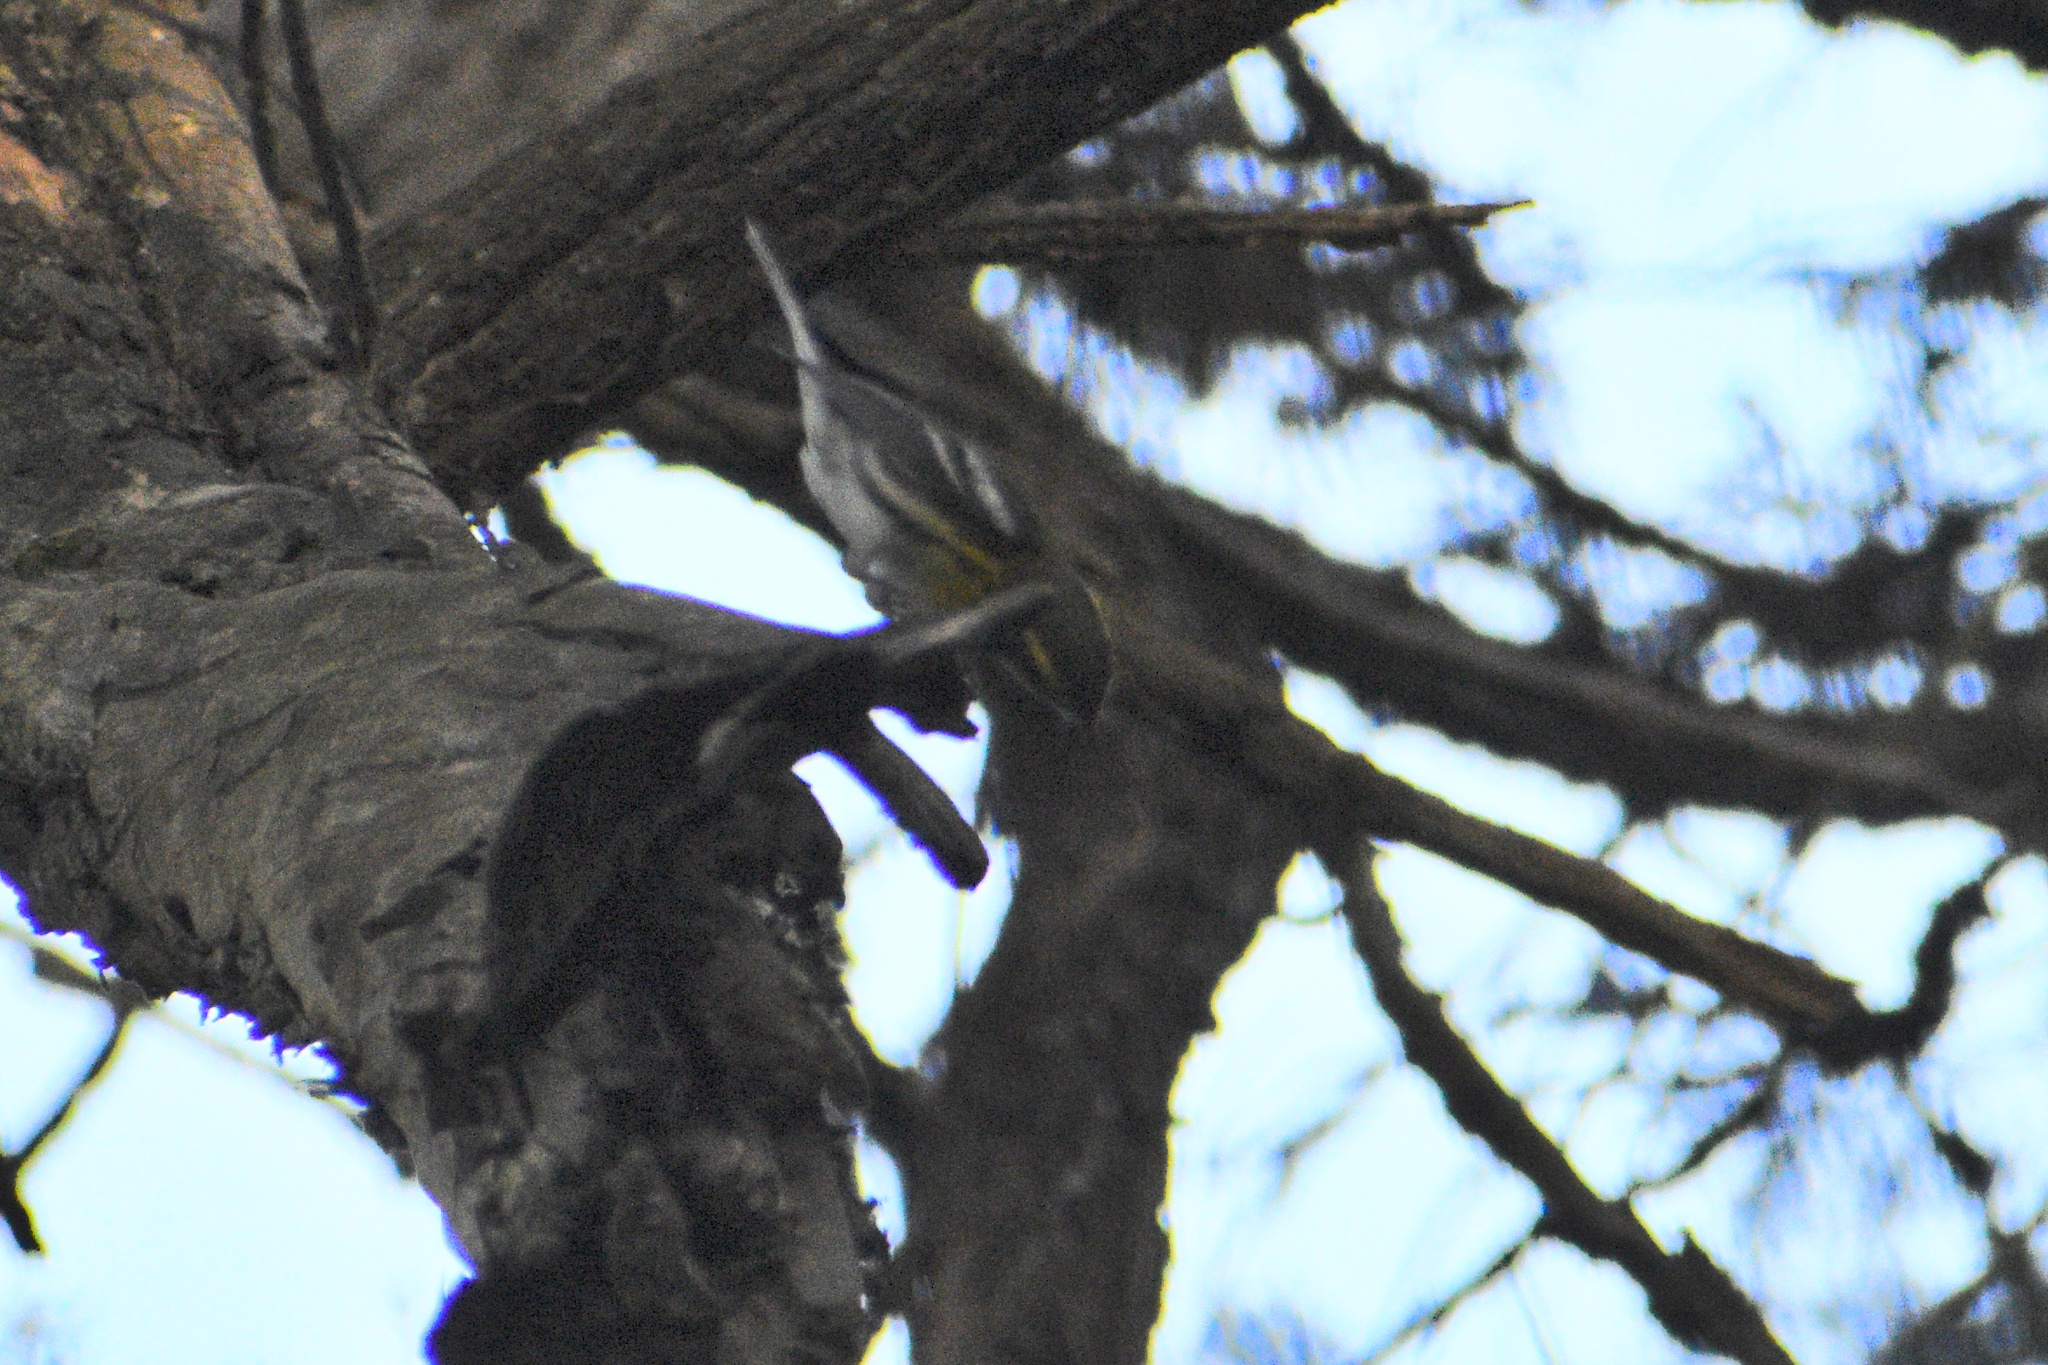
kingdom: Animalia
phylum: Chordata
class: Aves
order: Passeriformes
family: Parulidae
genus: Setophaga
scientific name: Setophaga townsendi
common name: Townsend's warbler
